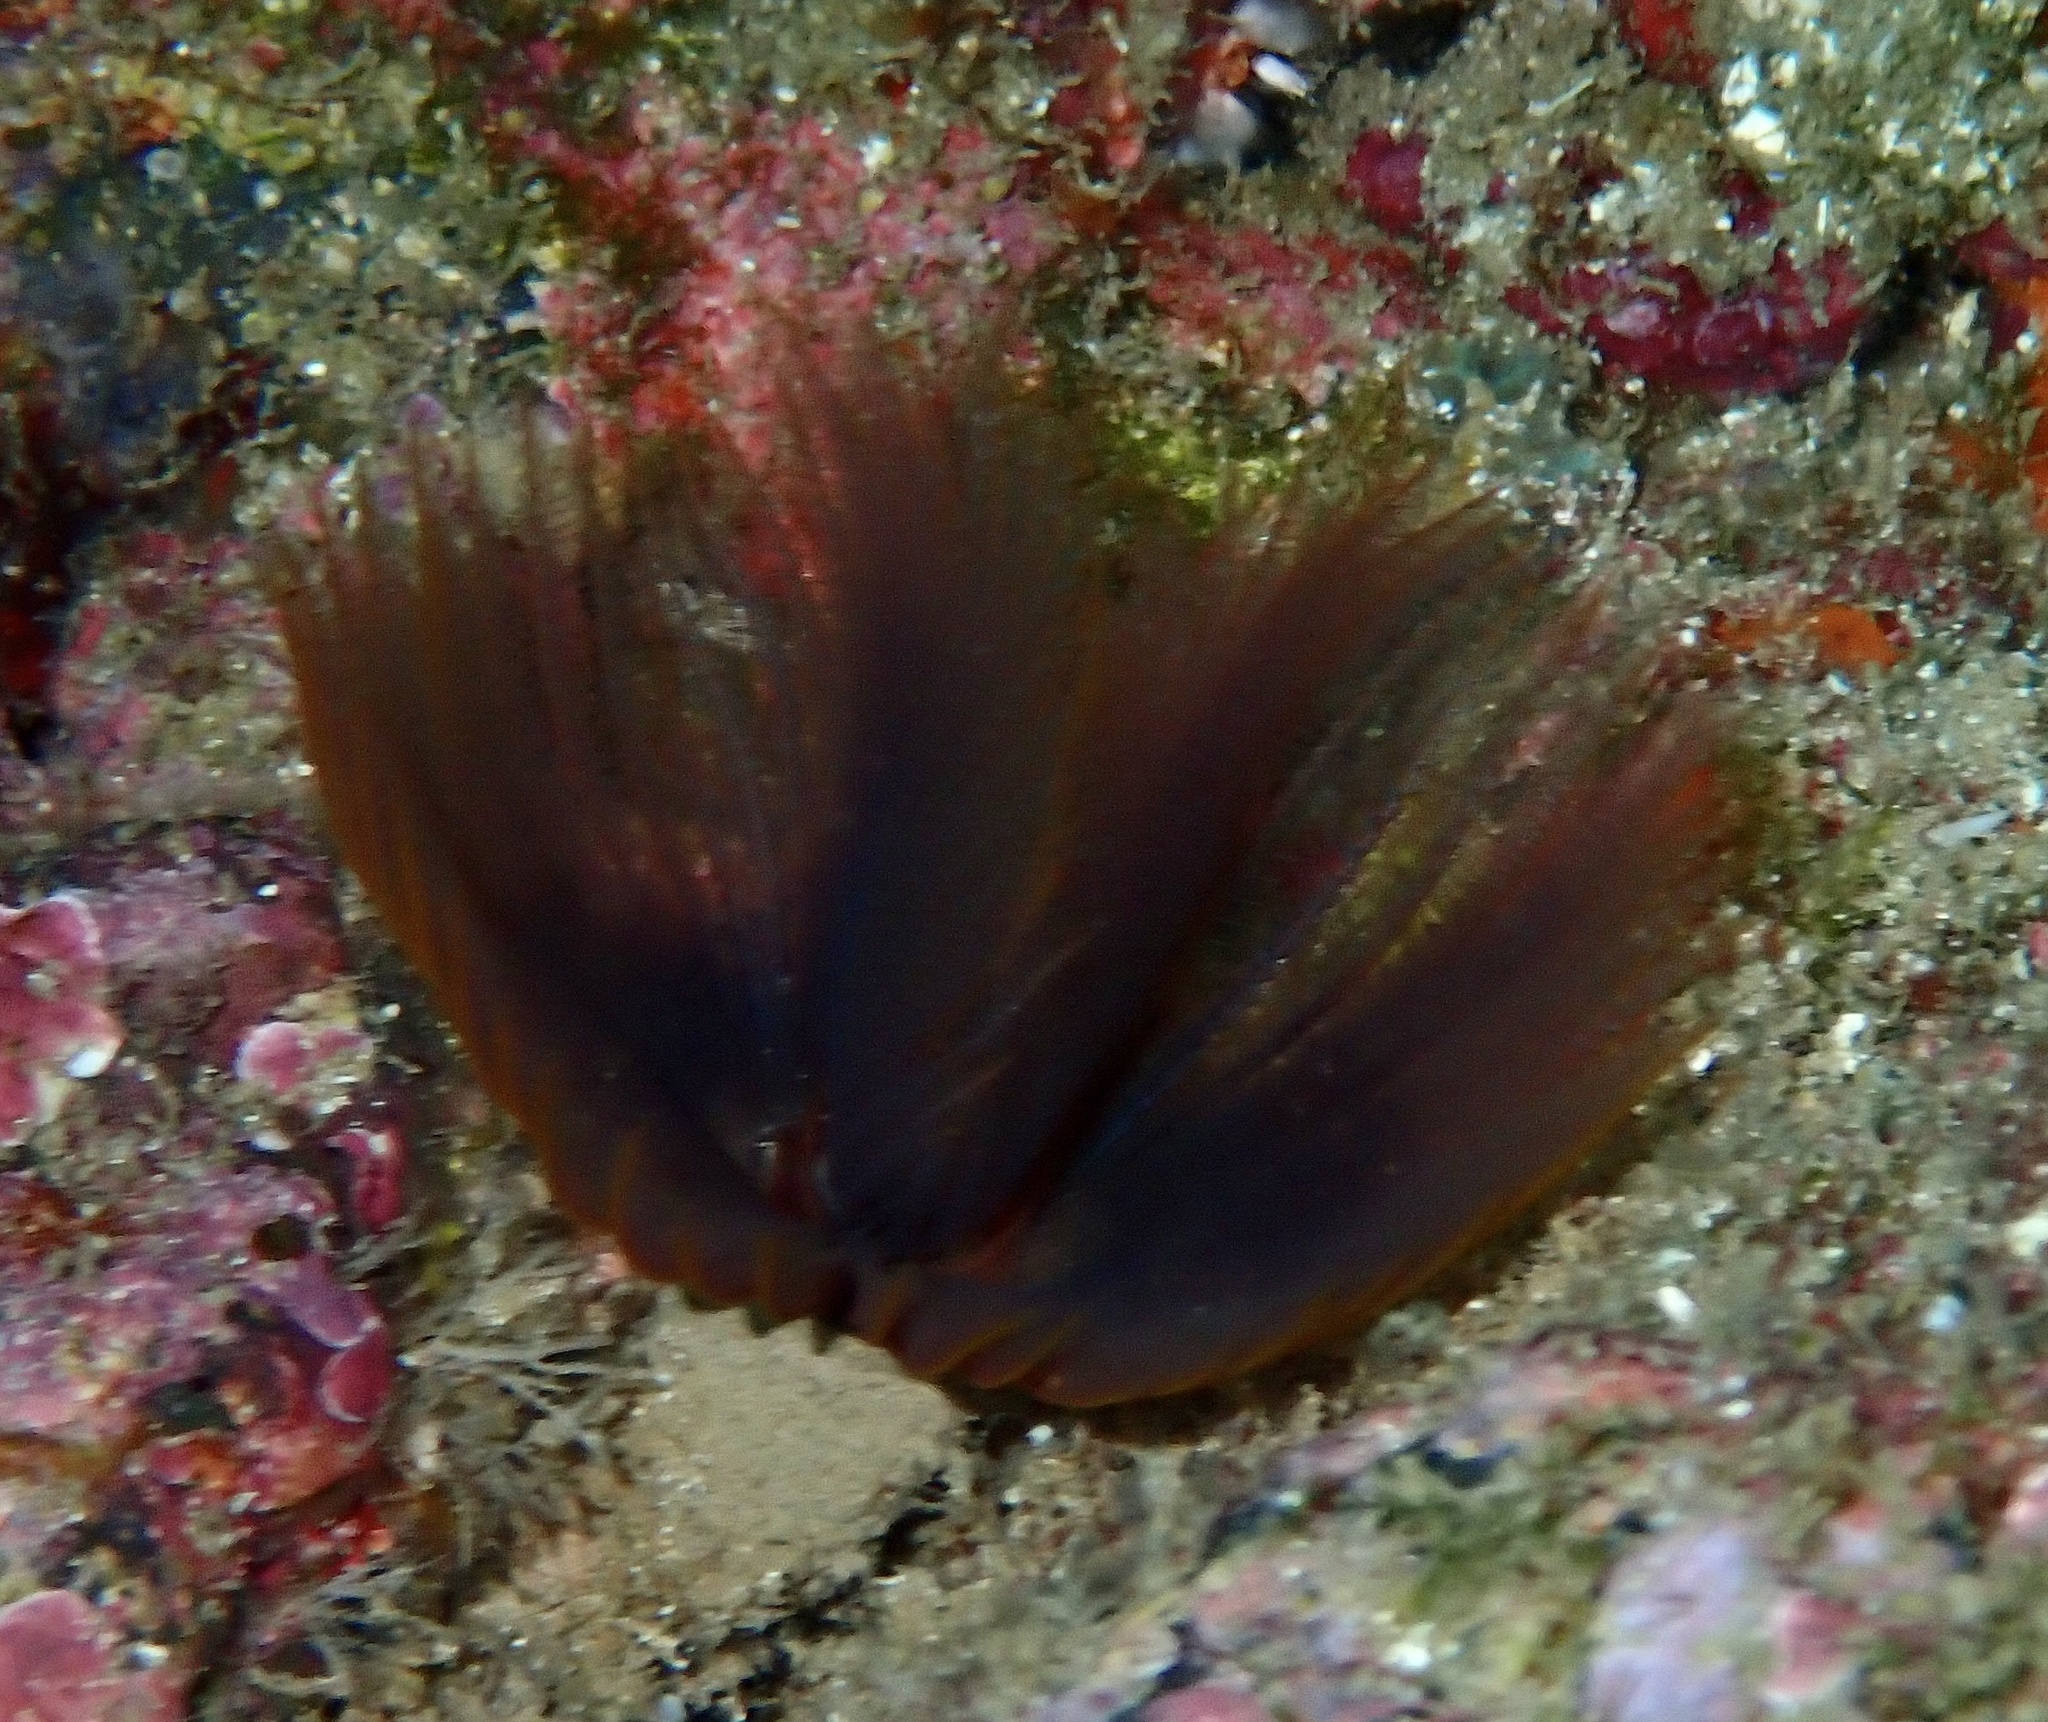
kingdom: Animalia
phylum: Annelida
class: Polychaeta
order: Sabellida
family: Sabellidae
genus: Branchiomma
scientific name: Branchiomma luctuosum
